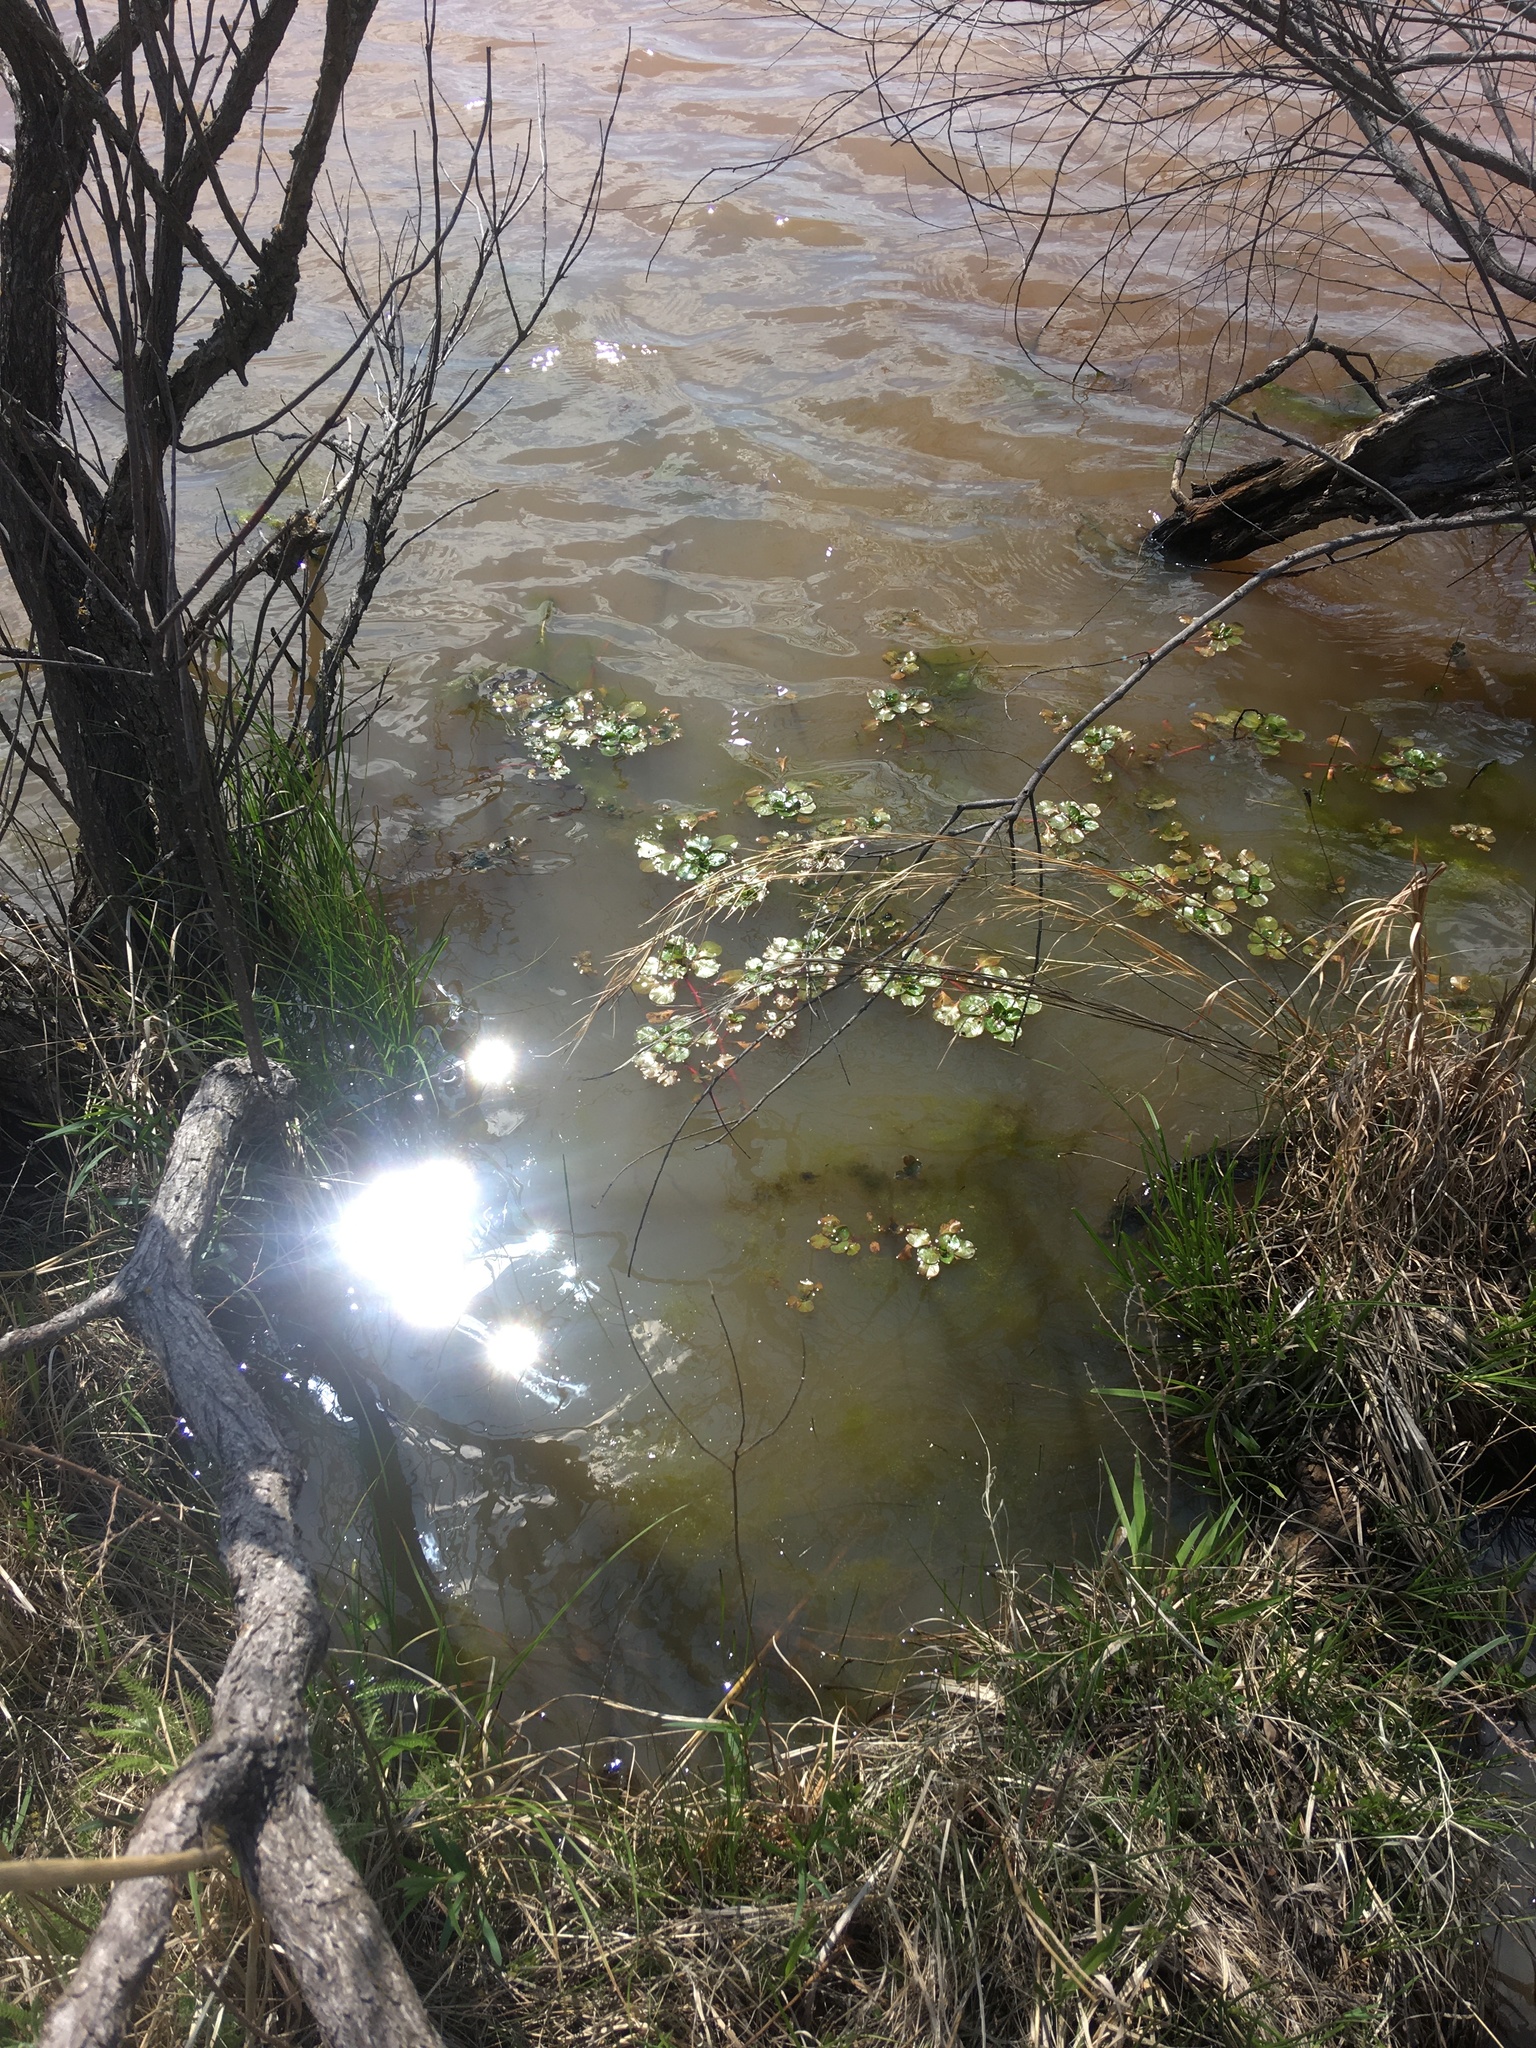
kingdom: Plantae
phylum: Tracheophyta
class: Magnoliopsida
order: Myrtales
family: Onagraceae
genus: Ludwigia
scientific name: Ludwigia peploides
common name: Floating primrose-willow
